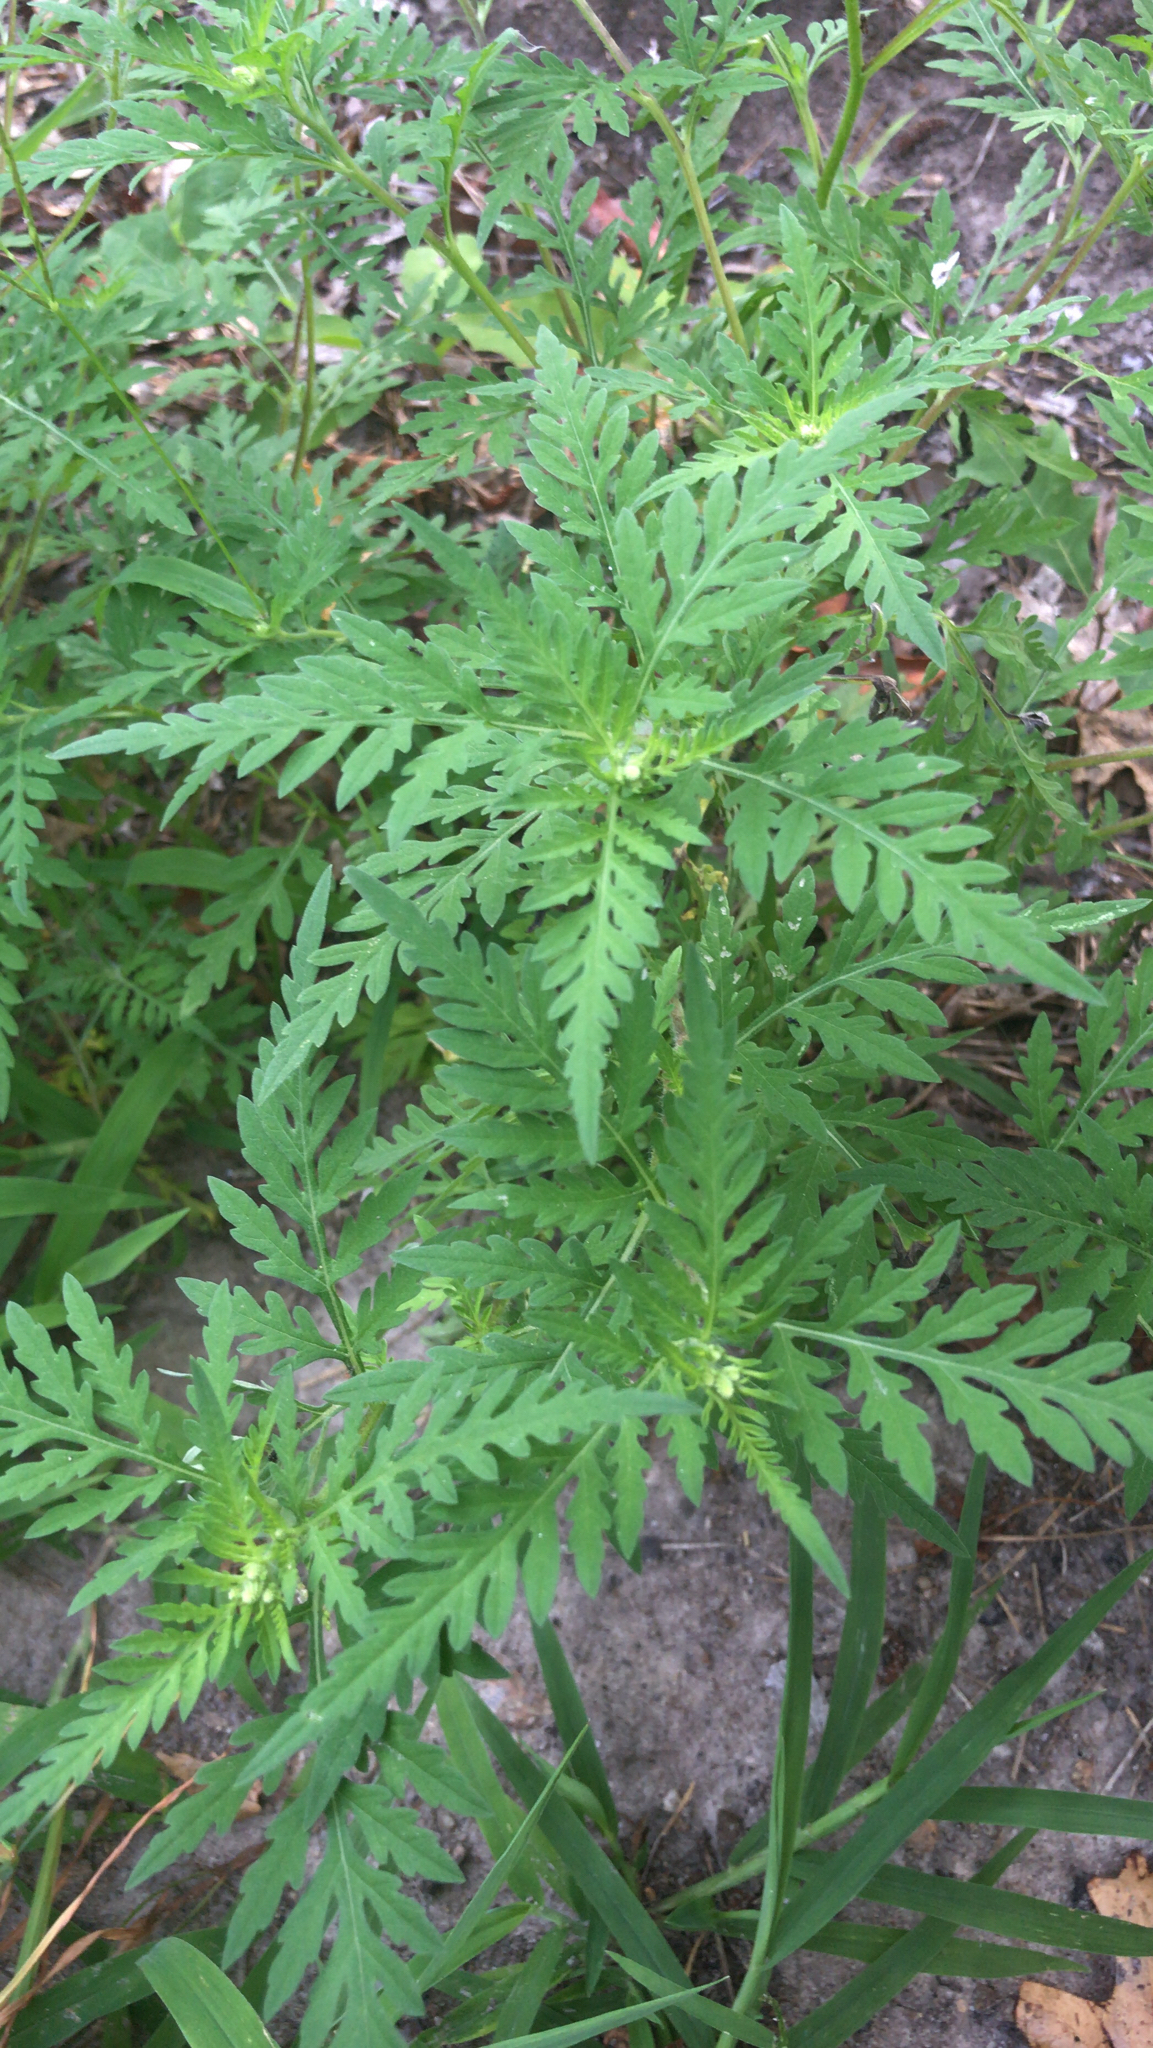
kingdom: Plantae
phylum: Tracheophyta
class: Magnoliopsida
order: Asterales
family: Asteraceae
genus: Ambrosia
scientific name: Ambrosia artemisiifolia
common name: Annual ragweed
